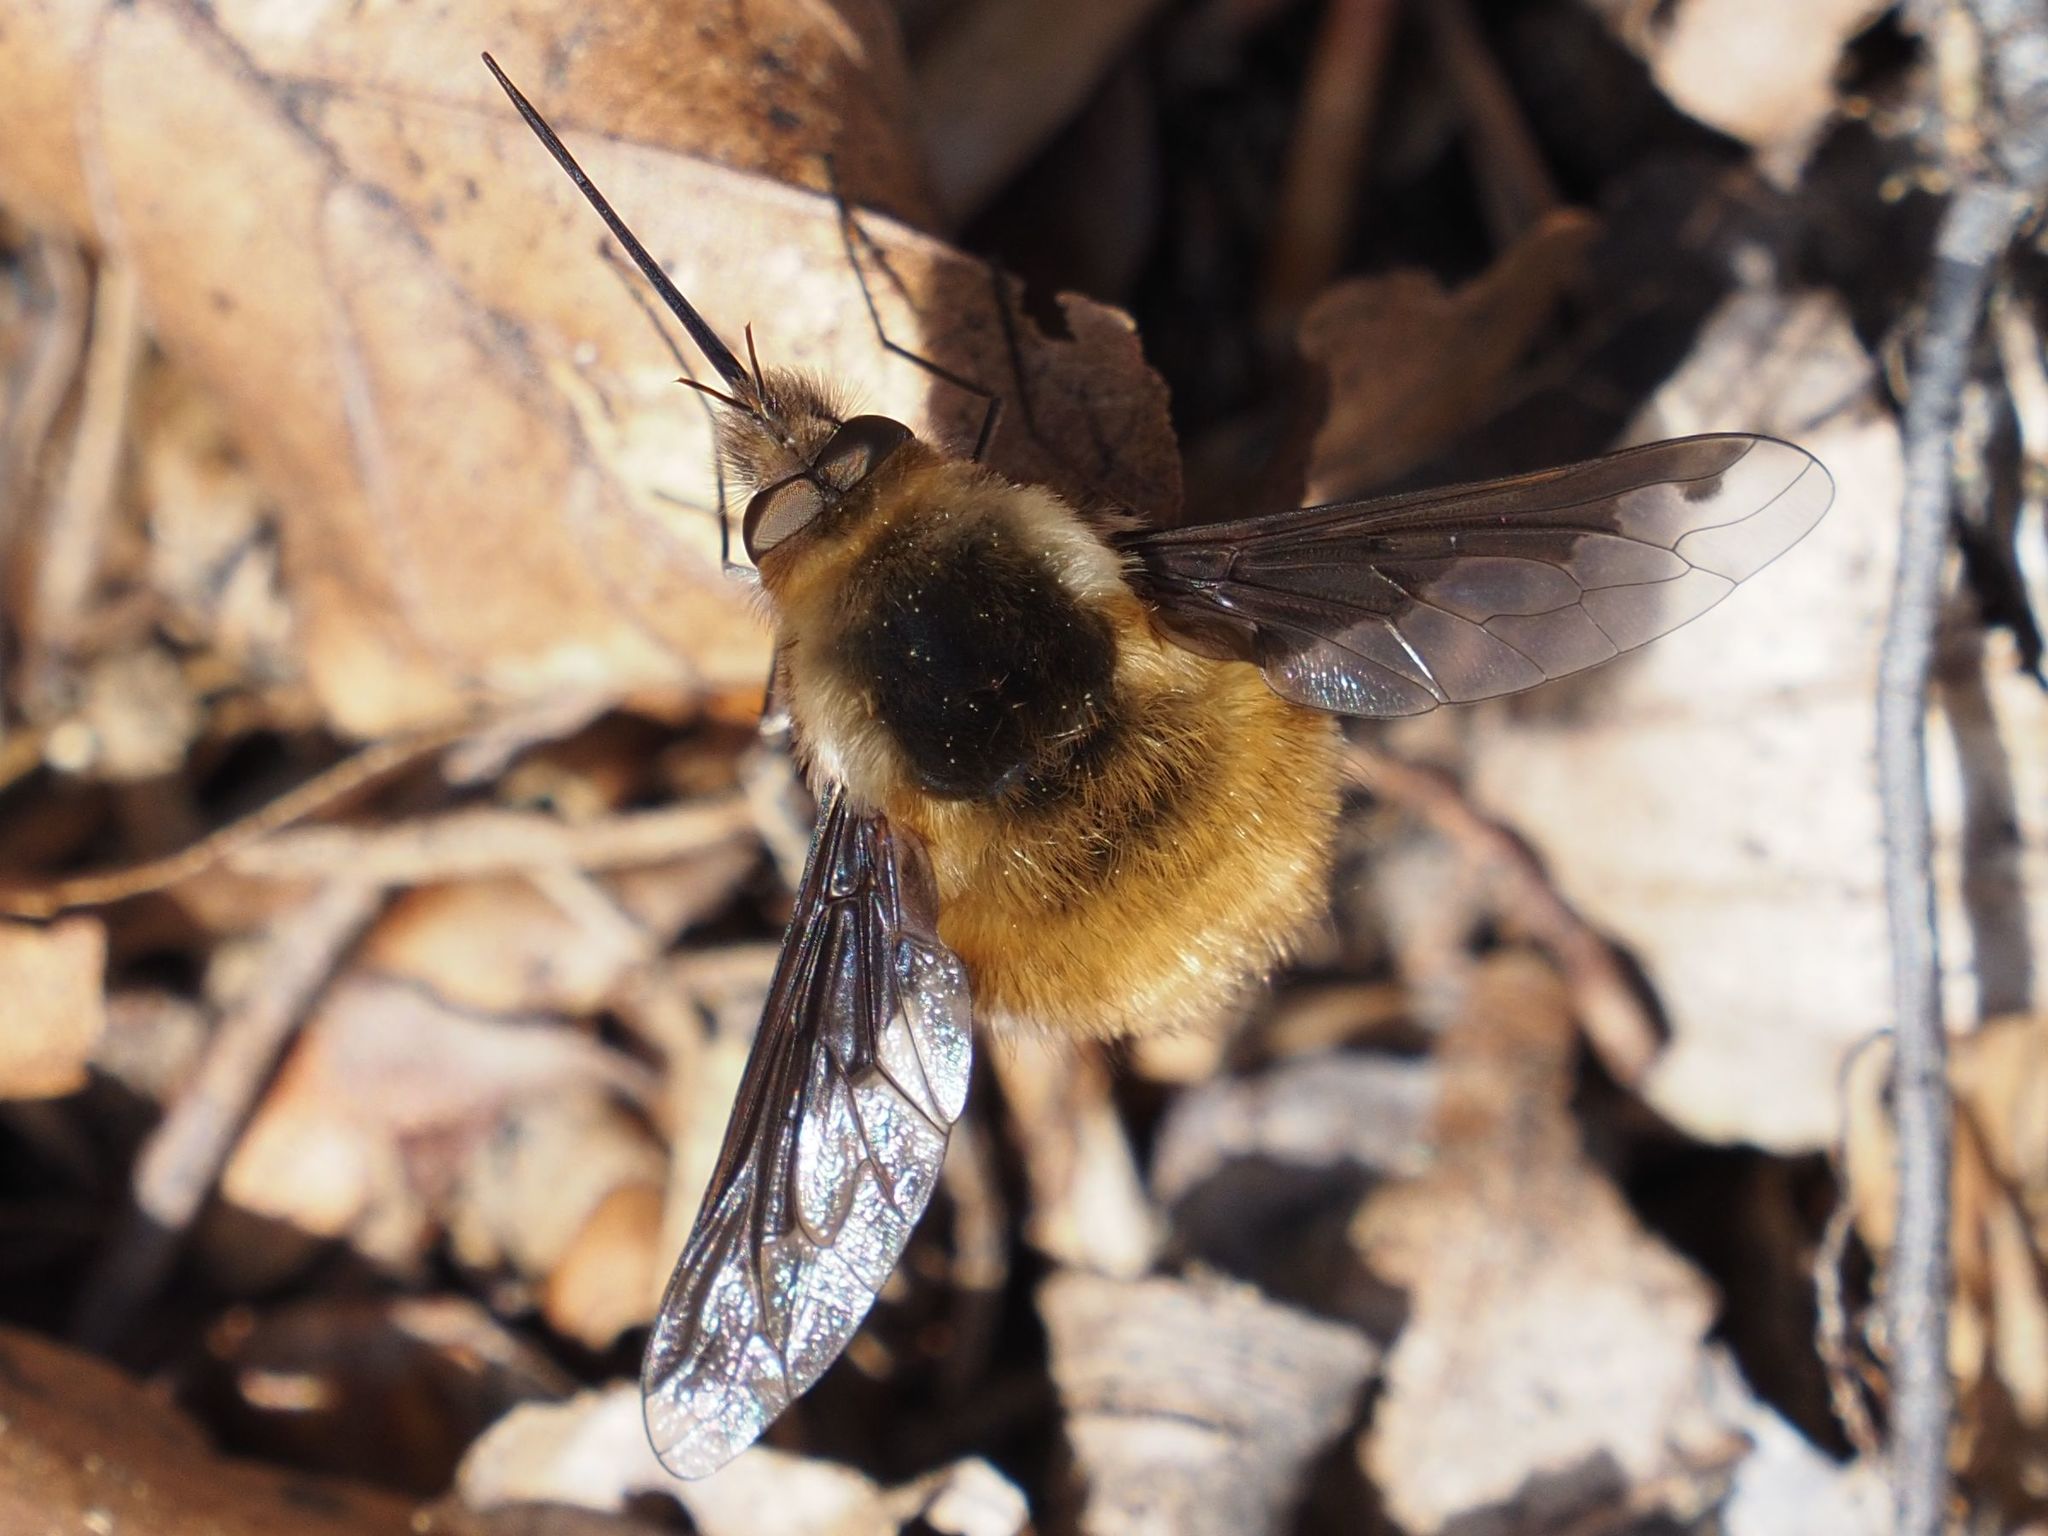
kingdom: Animalia
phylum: Arthropoda
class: Insecta
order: Diptera
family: Bombyliidae
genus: Bombylius
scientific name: Bombylius major
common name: Bee fly
